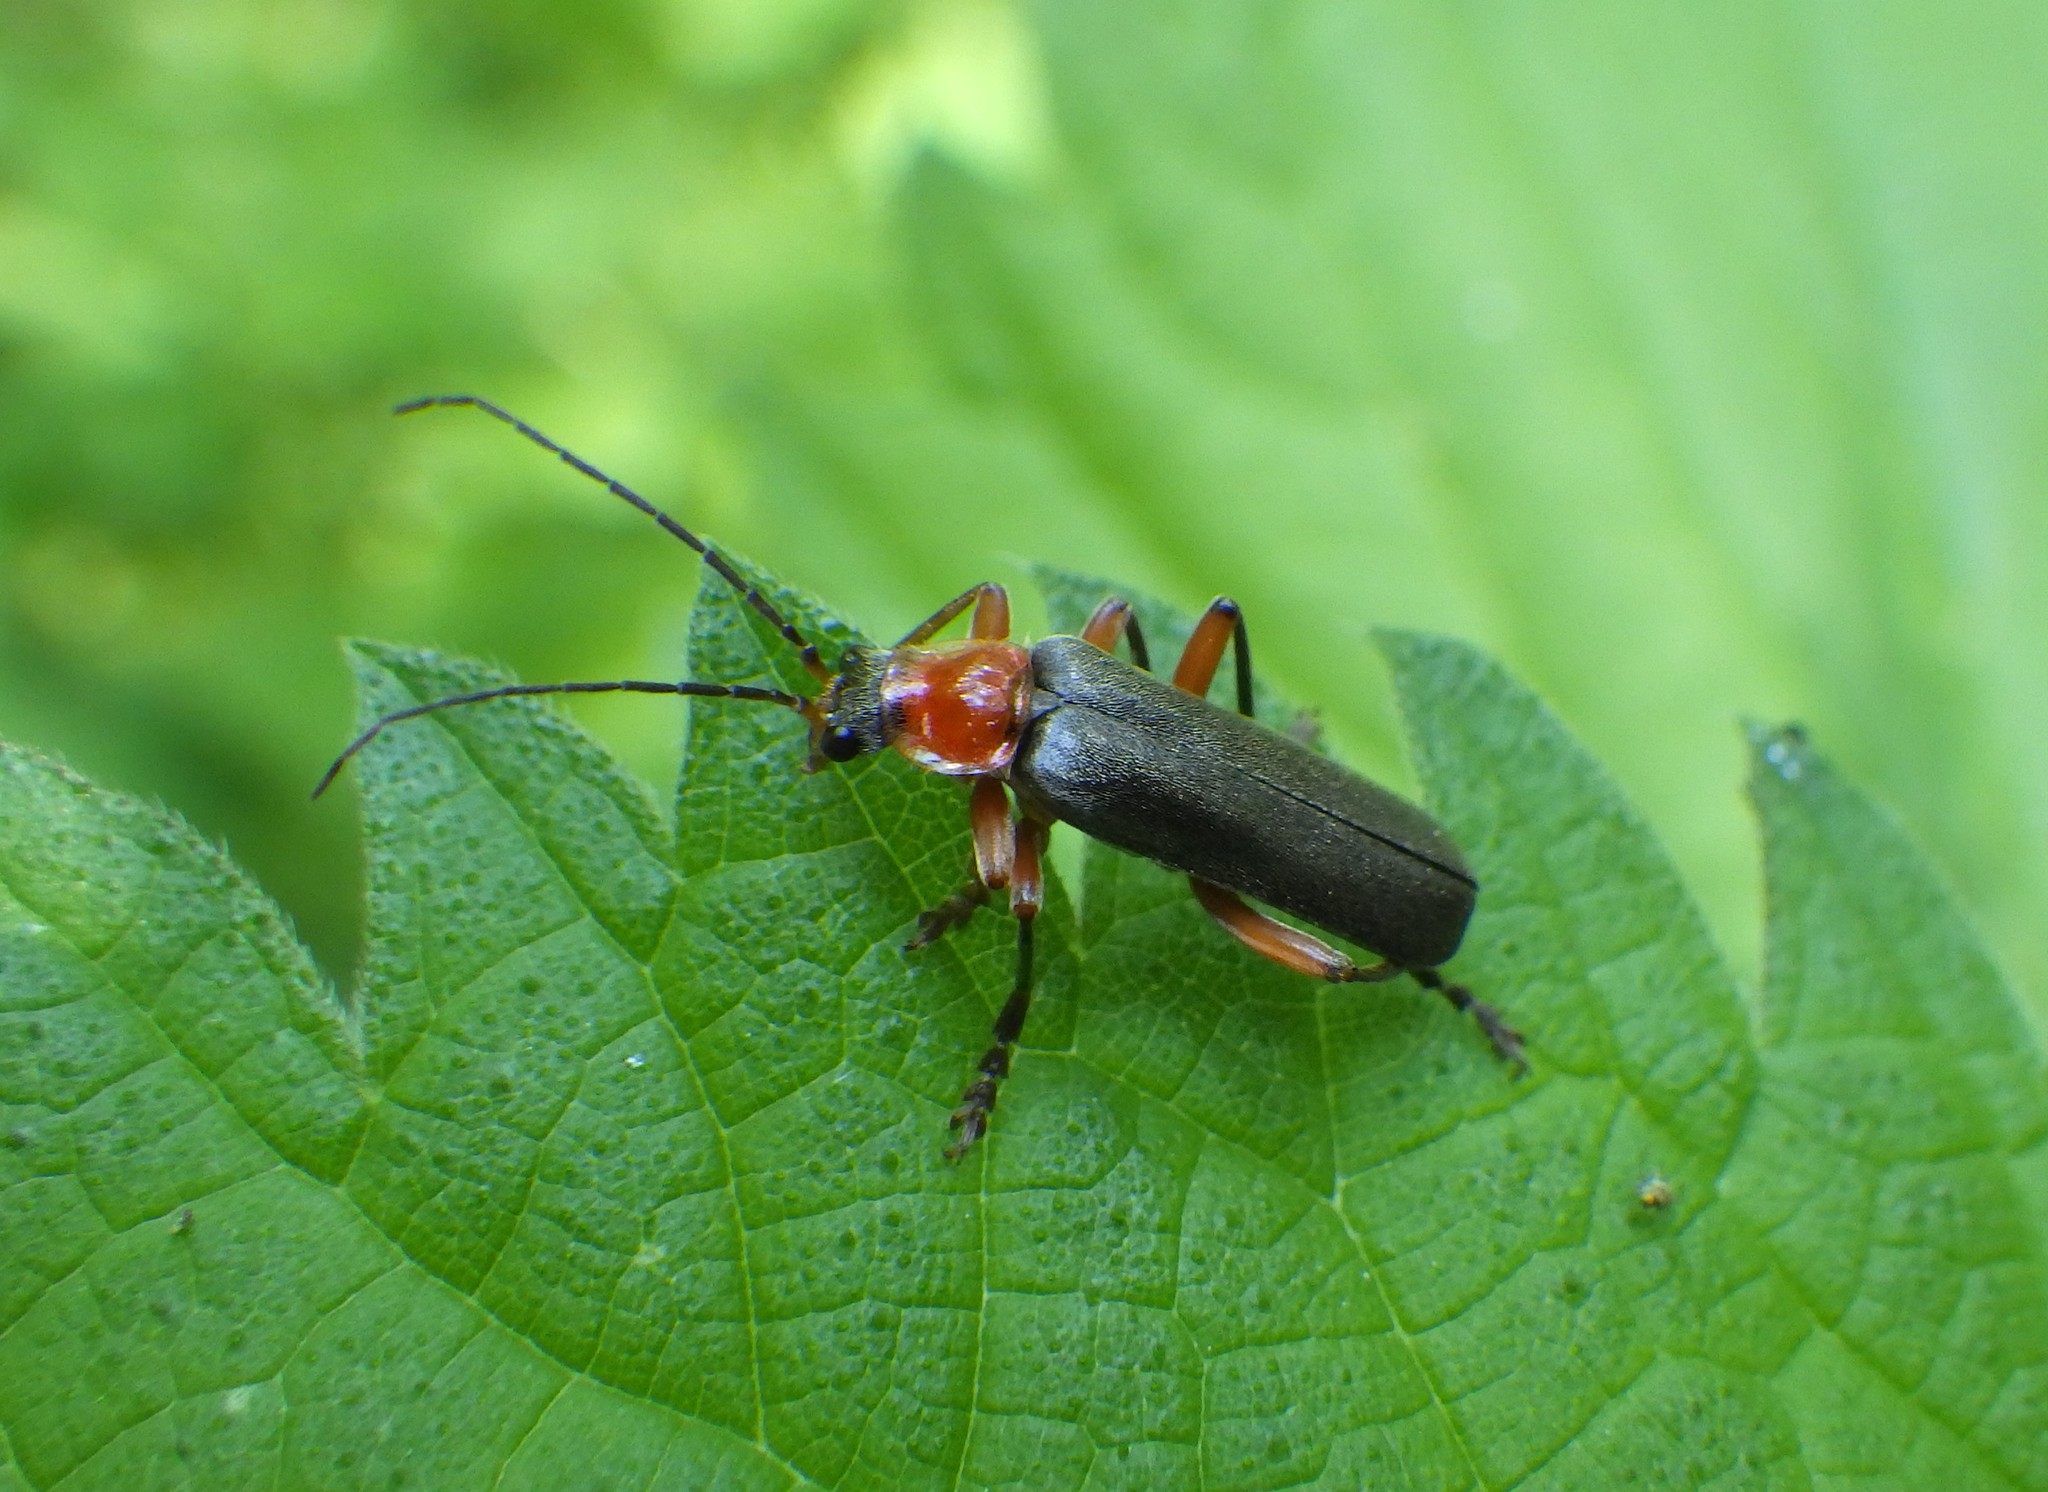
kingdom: Animalia
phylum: Arthropoda
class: Insecta
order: Coleoptera
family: Cantharidae
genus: Cantharis
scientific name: Cantharis pellucida
